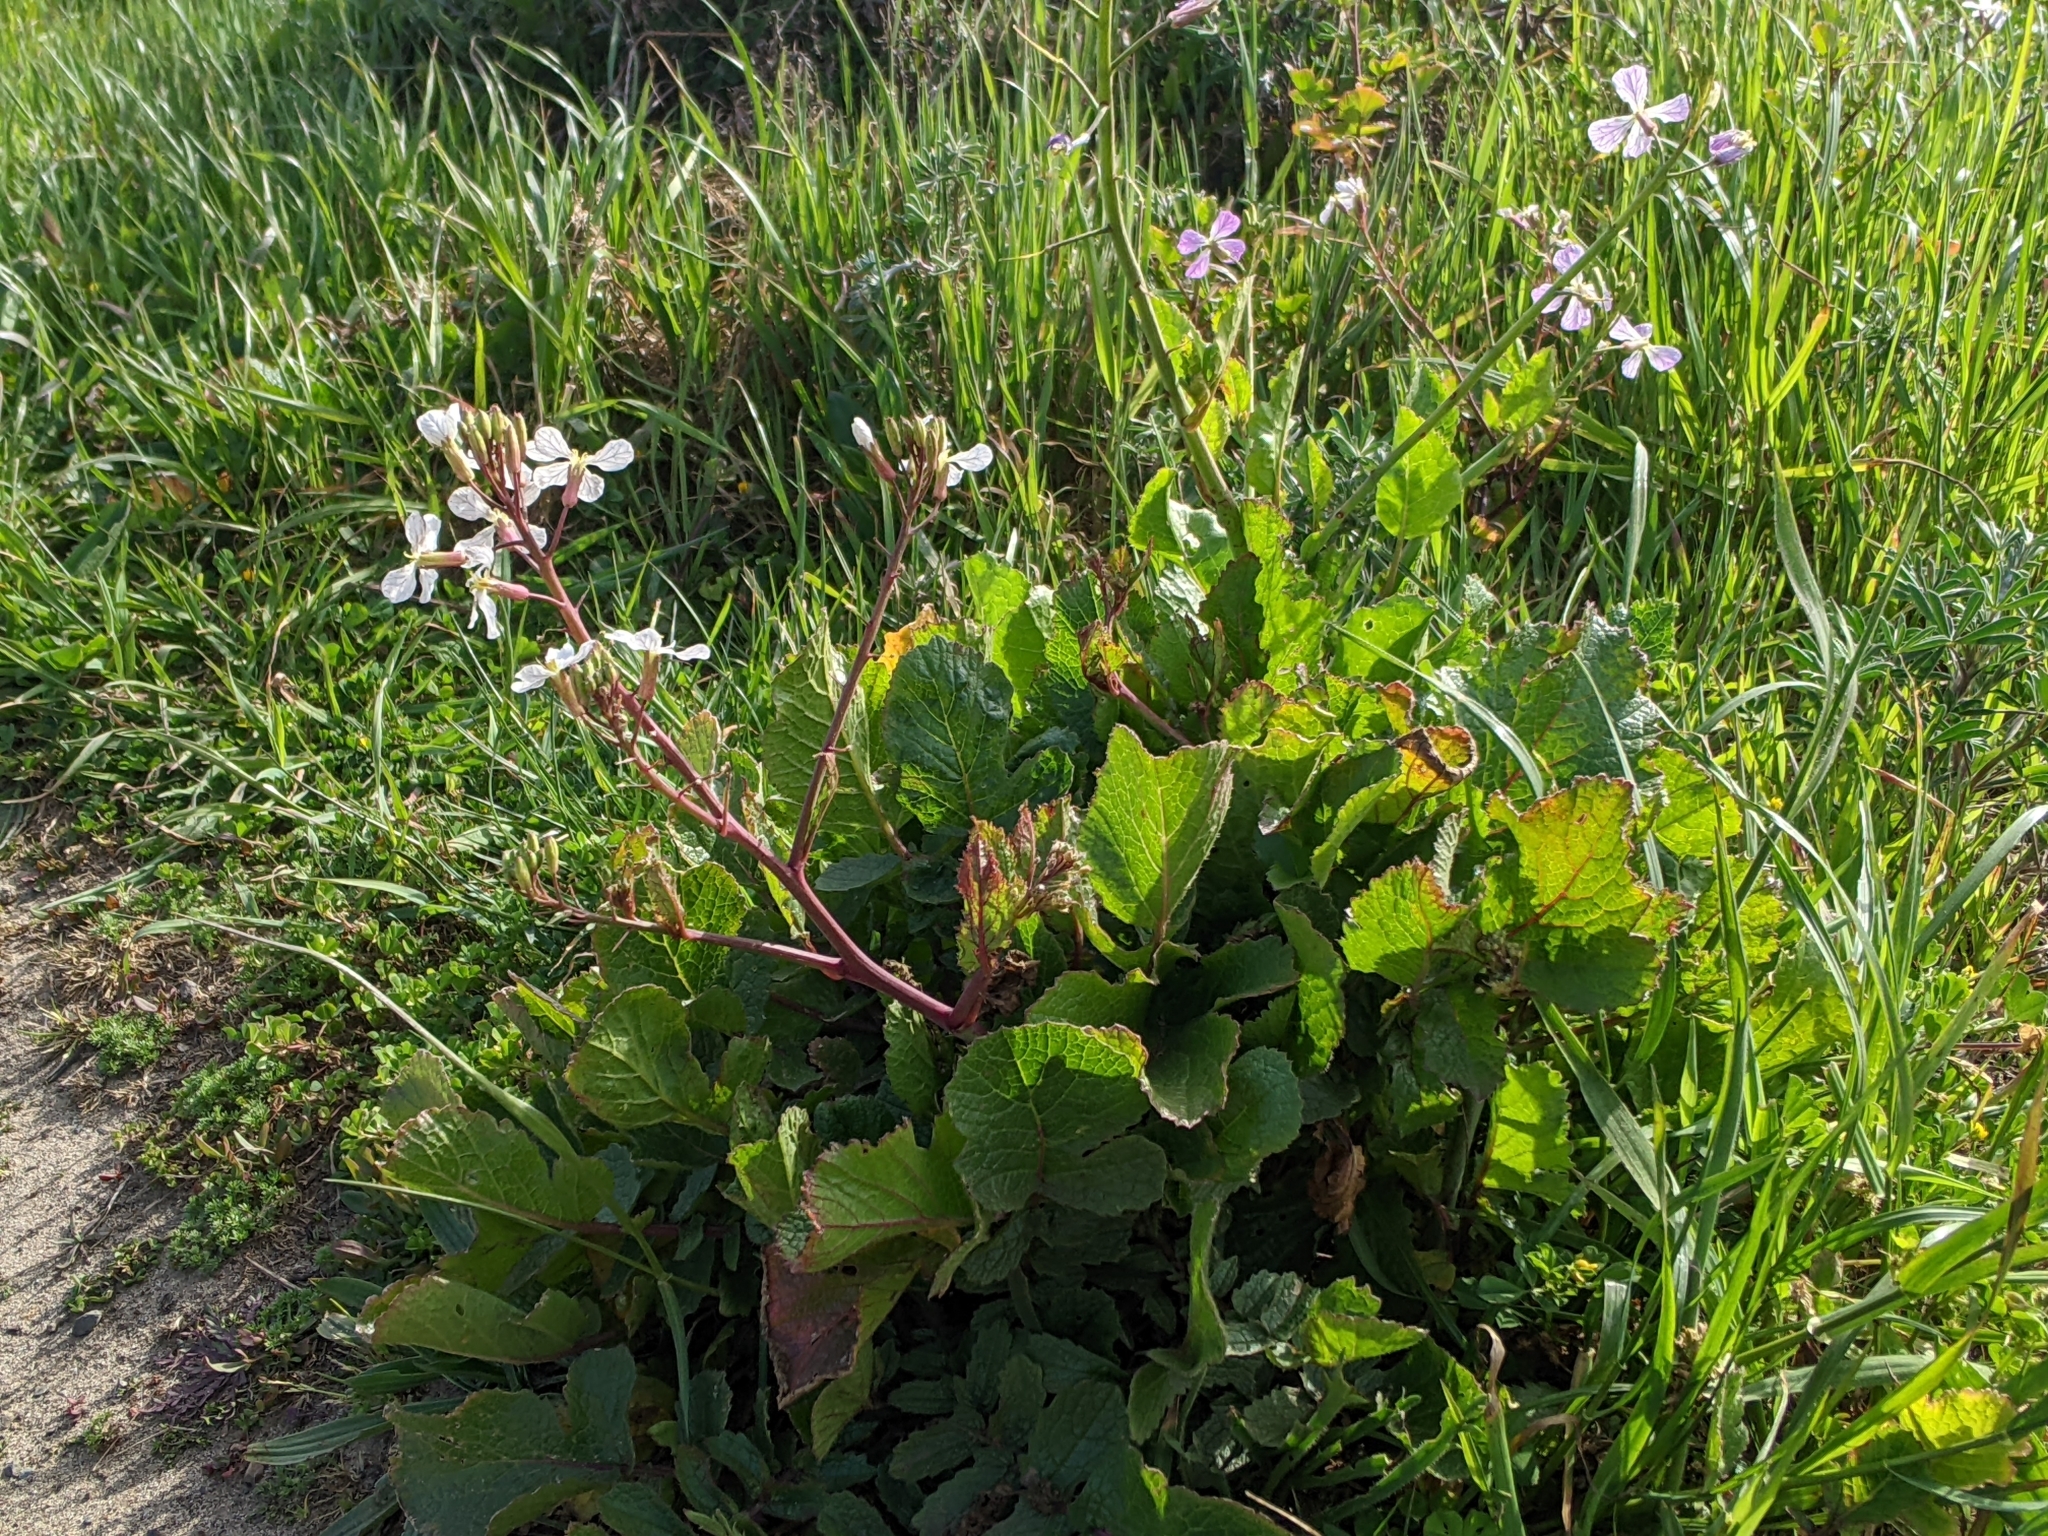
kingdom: Plantae
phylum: Tracheophyta
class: Magnoliopsida
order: Brassicales
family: Brassicaceae
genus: Raphanus
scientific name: Raphanus sativus
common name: Cultivated radish
